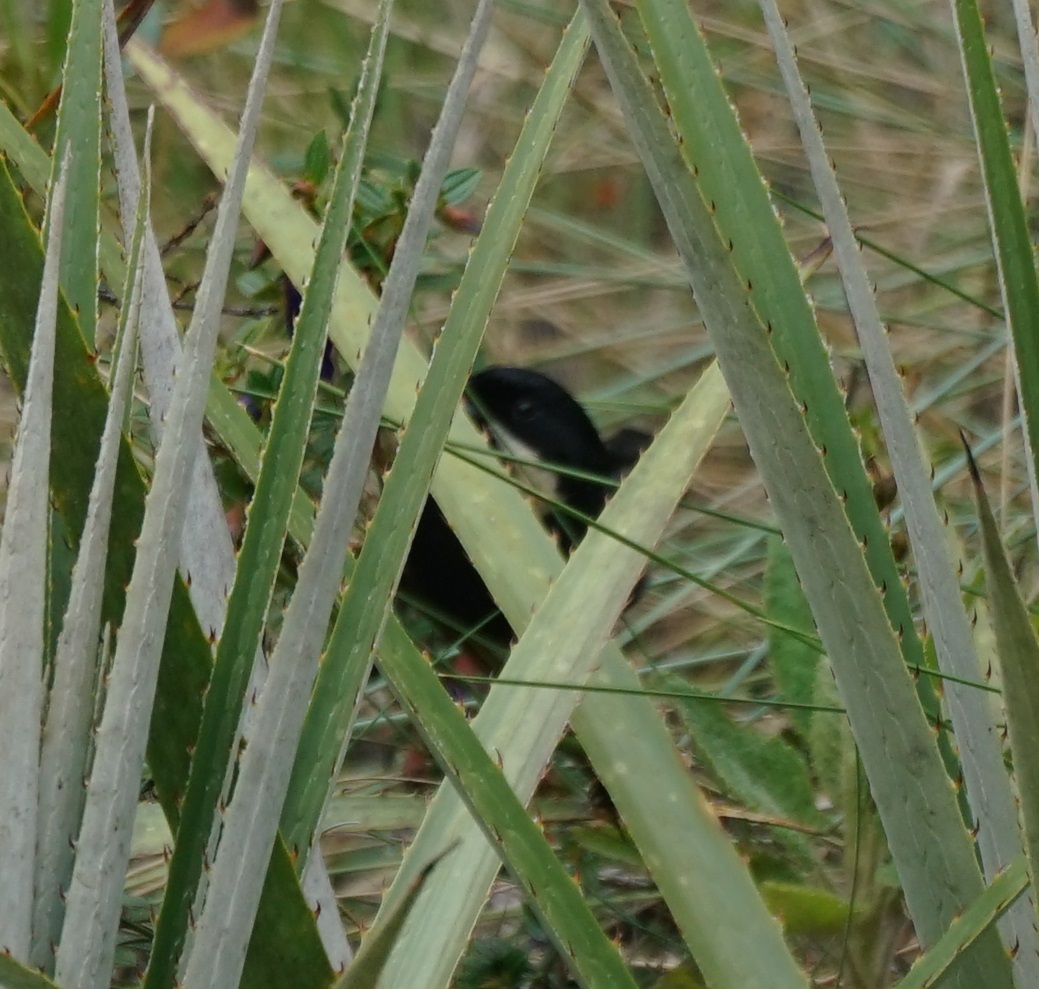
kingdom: Animalia
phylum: Chordata
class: Aves
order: Passeriformes
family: Thraupidae
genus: Diglossa
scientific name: Diglossa mystacalis
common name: Moustached flowerpiercer
